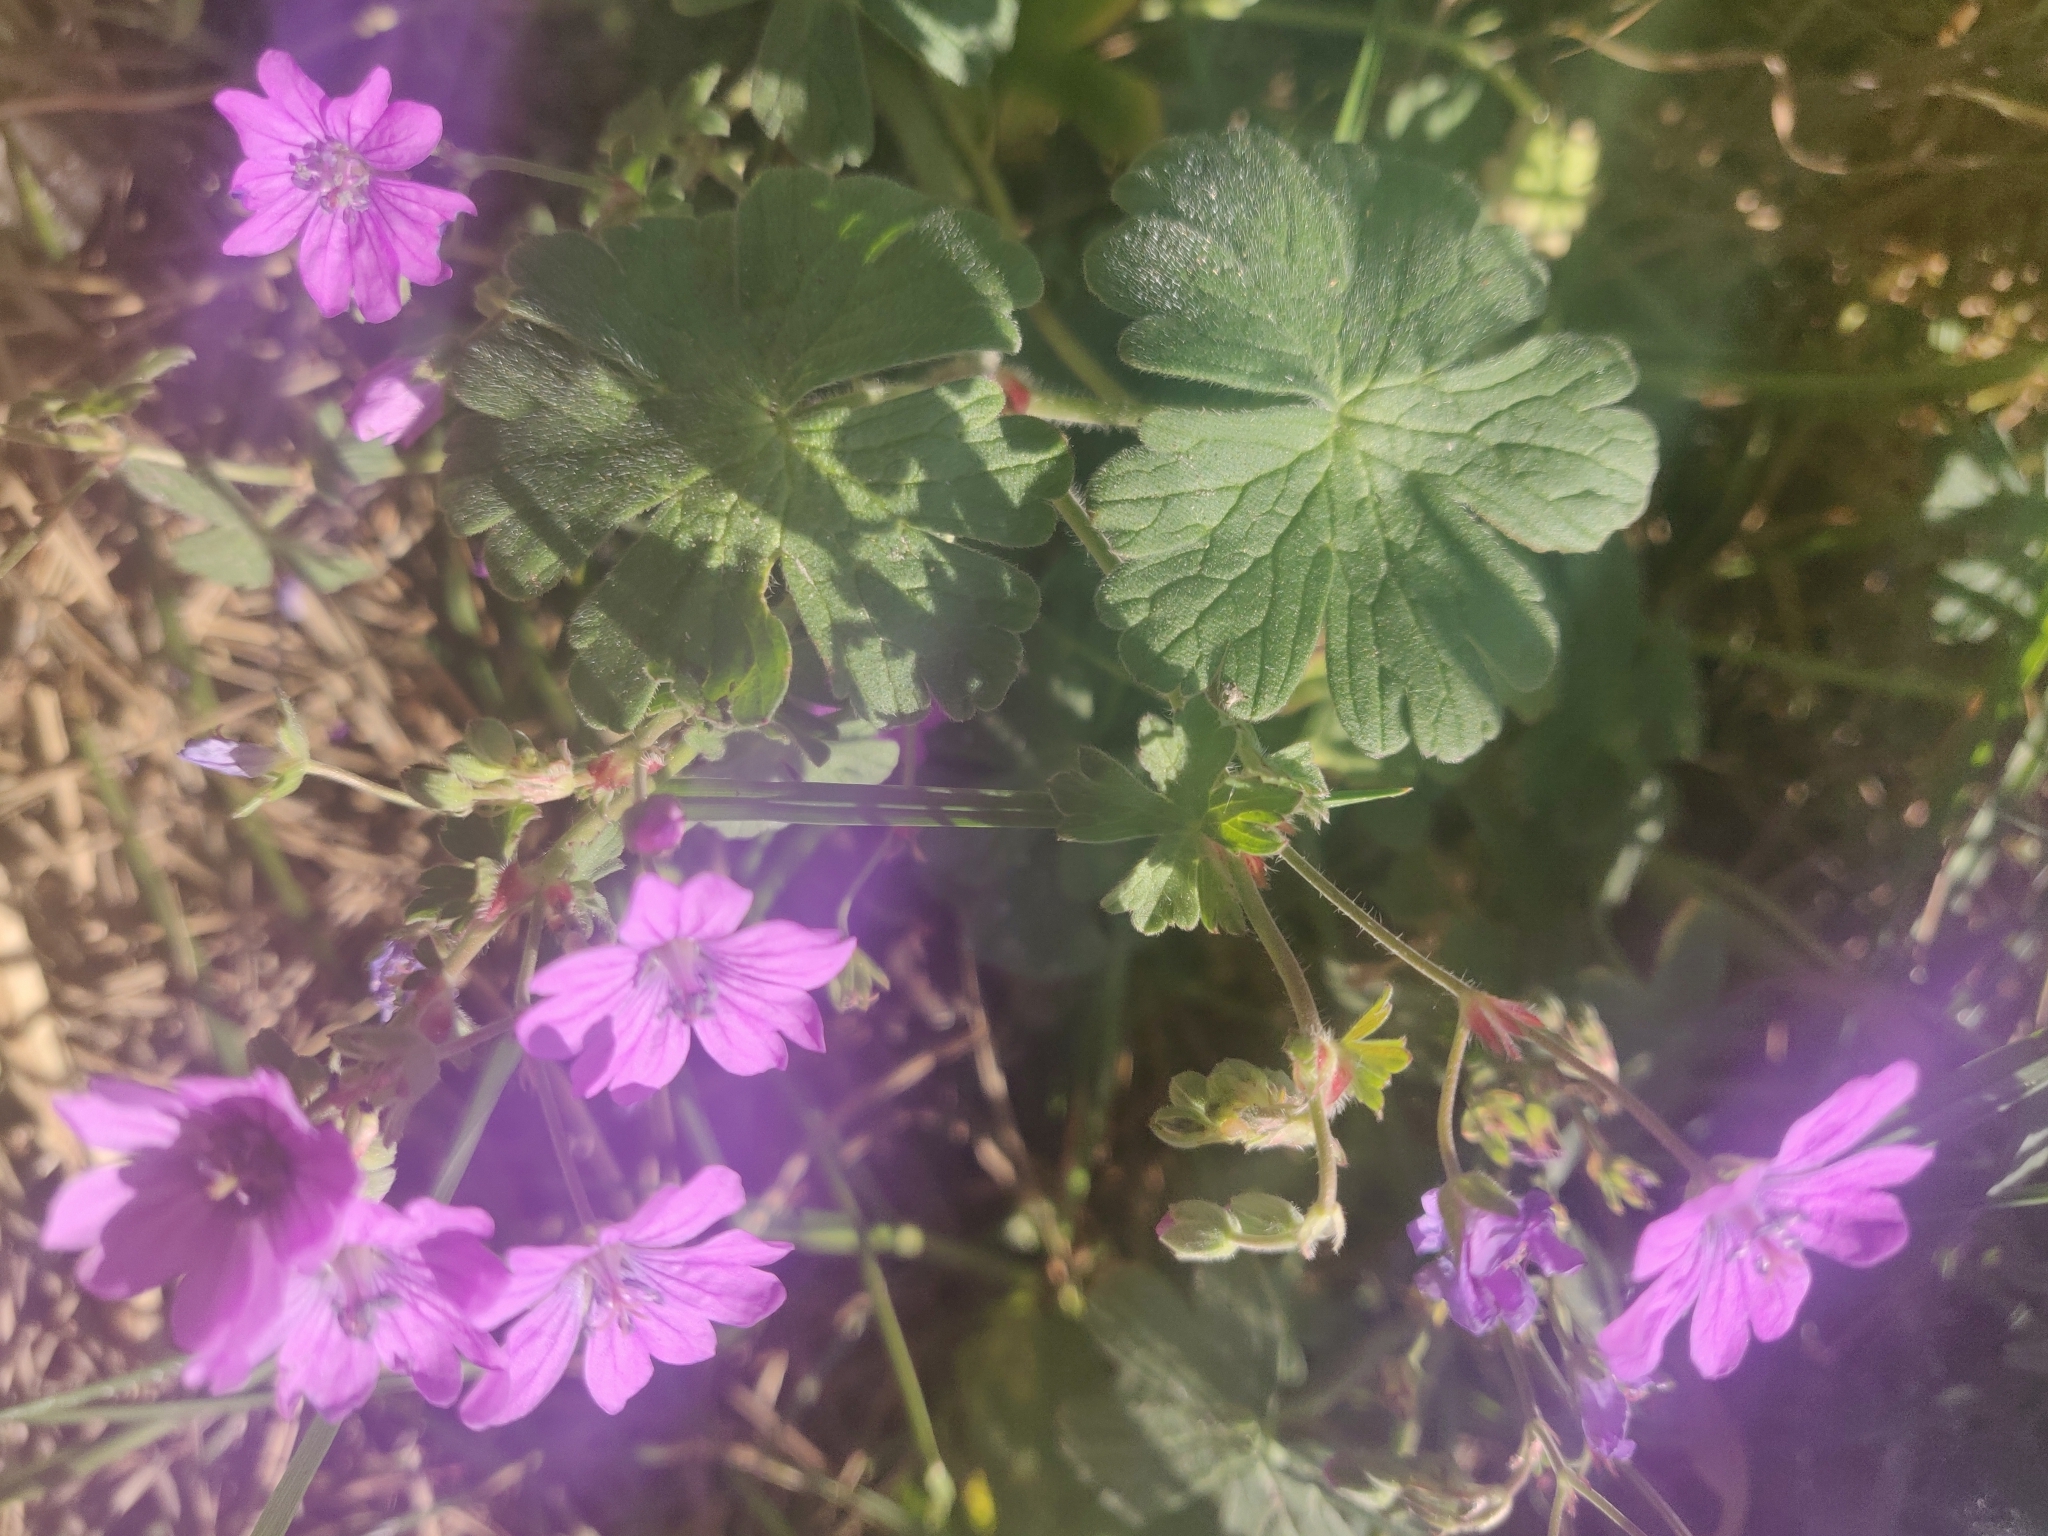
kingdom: Plantae
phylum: Tracheophyta
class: Magnoliopsida
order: Geraniales
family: Geraniaceae
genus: Geranium
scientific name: Geranium pyrenaicum
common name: Hedgerow crane's-bill
